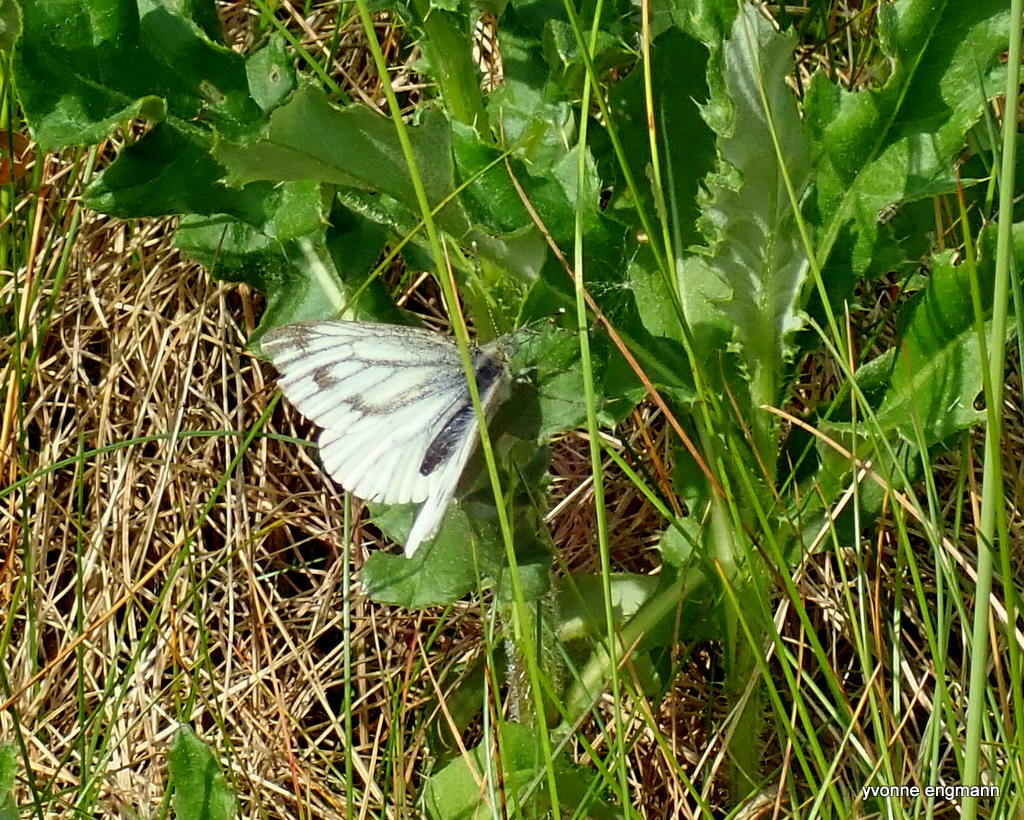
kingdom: Animalia
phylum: Arthropoda
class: Insecta
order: Lepidoptera
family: Pieridae
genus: Pieris
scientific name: Pieris napi
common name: Green-veined white
